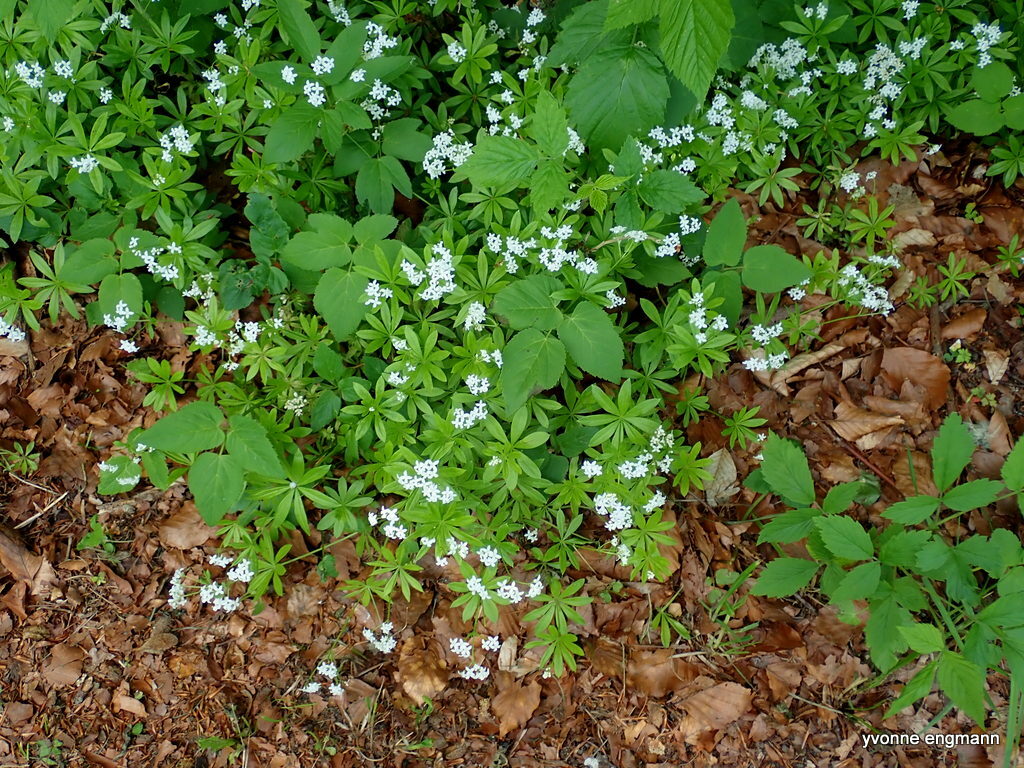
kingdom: Plantae
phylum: Tracheophyta
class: Magnoliopsida
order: Gentianales
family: Rubiaceae
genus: Galium
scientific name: Galium odoratum
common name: Sweet woodruff
